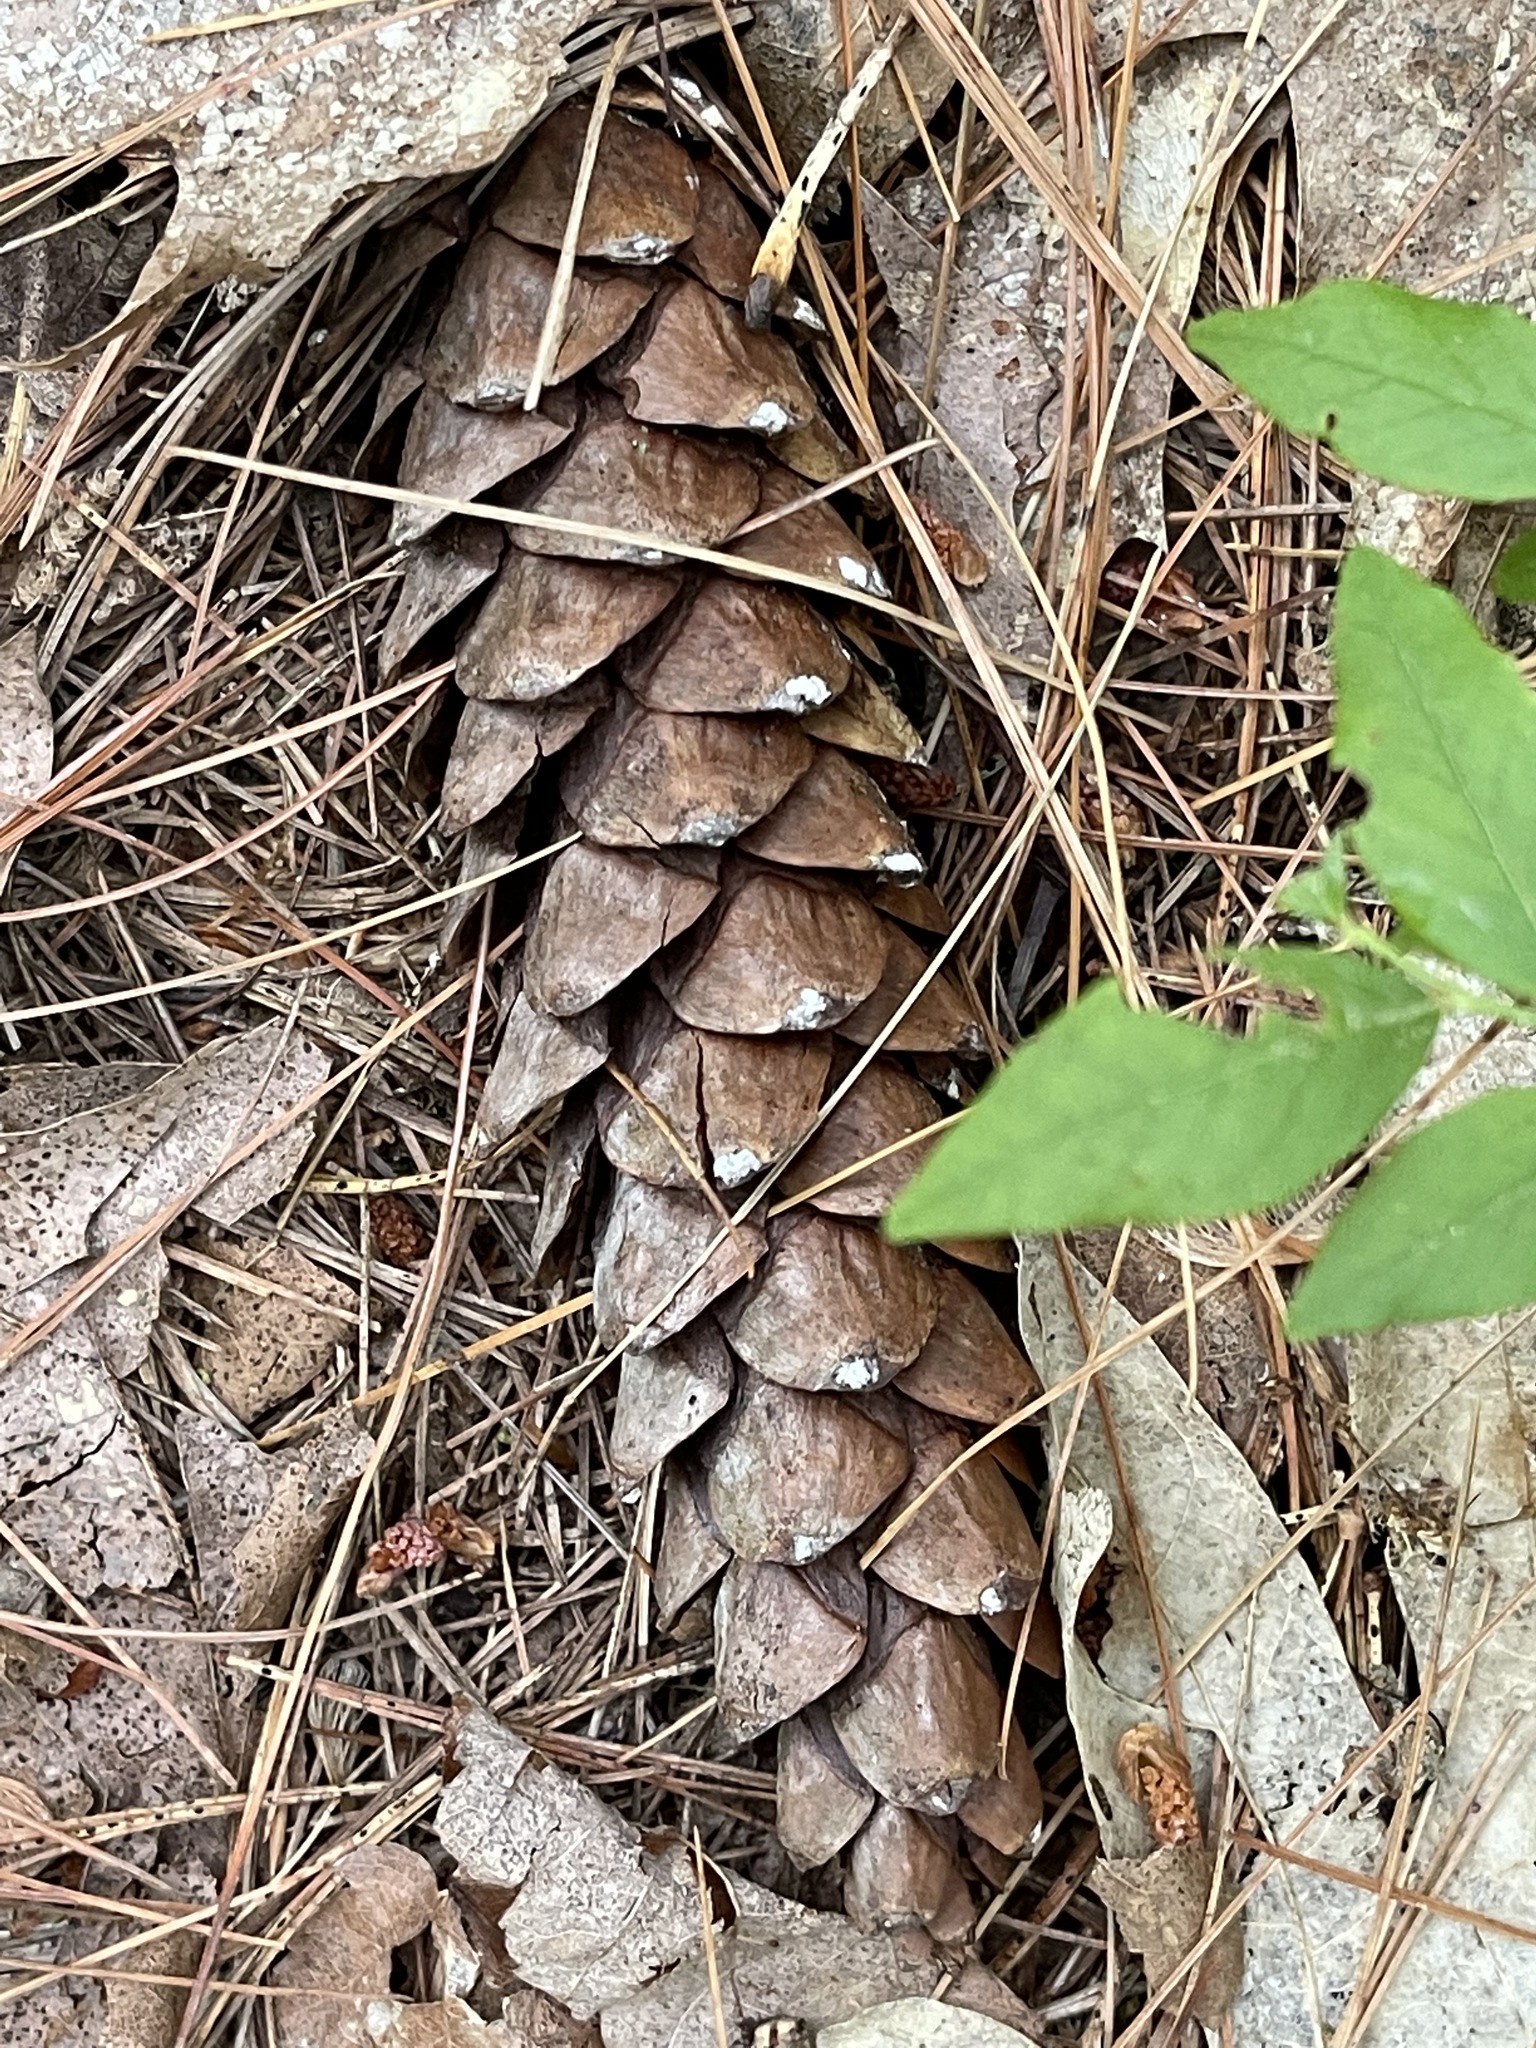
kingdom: Plantae
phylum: Tracheophyta
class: Pinopsida
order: Pinales
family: Pinaceae
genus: Pinus
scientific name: Pinus strobus
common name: Weymouth pine
